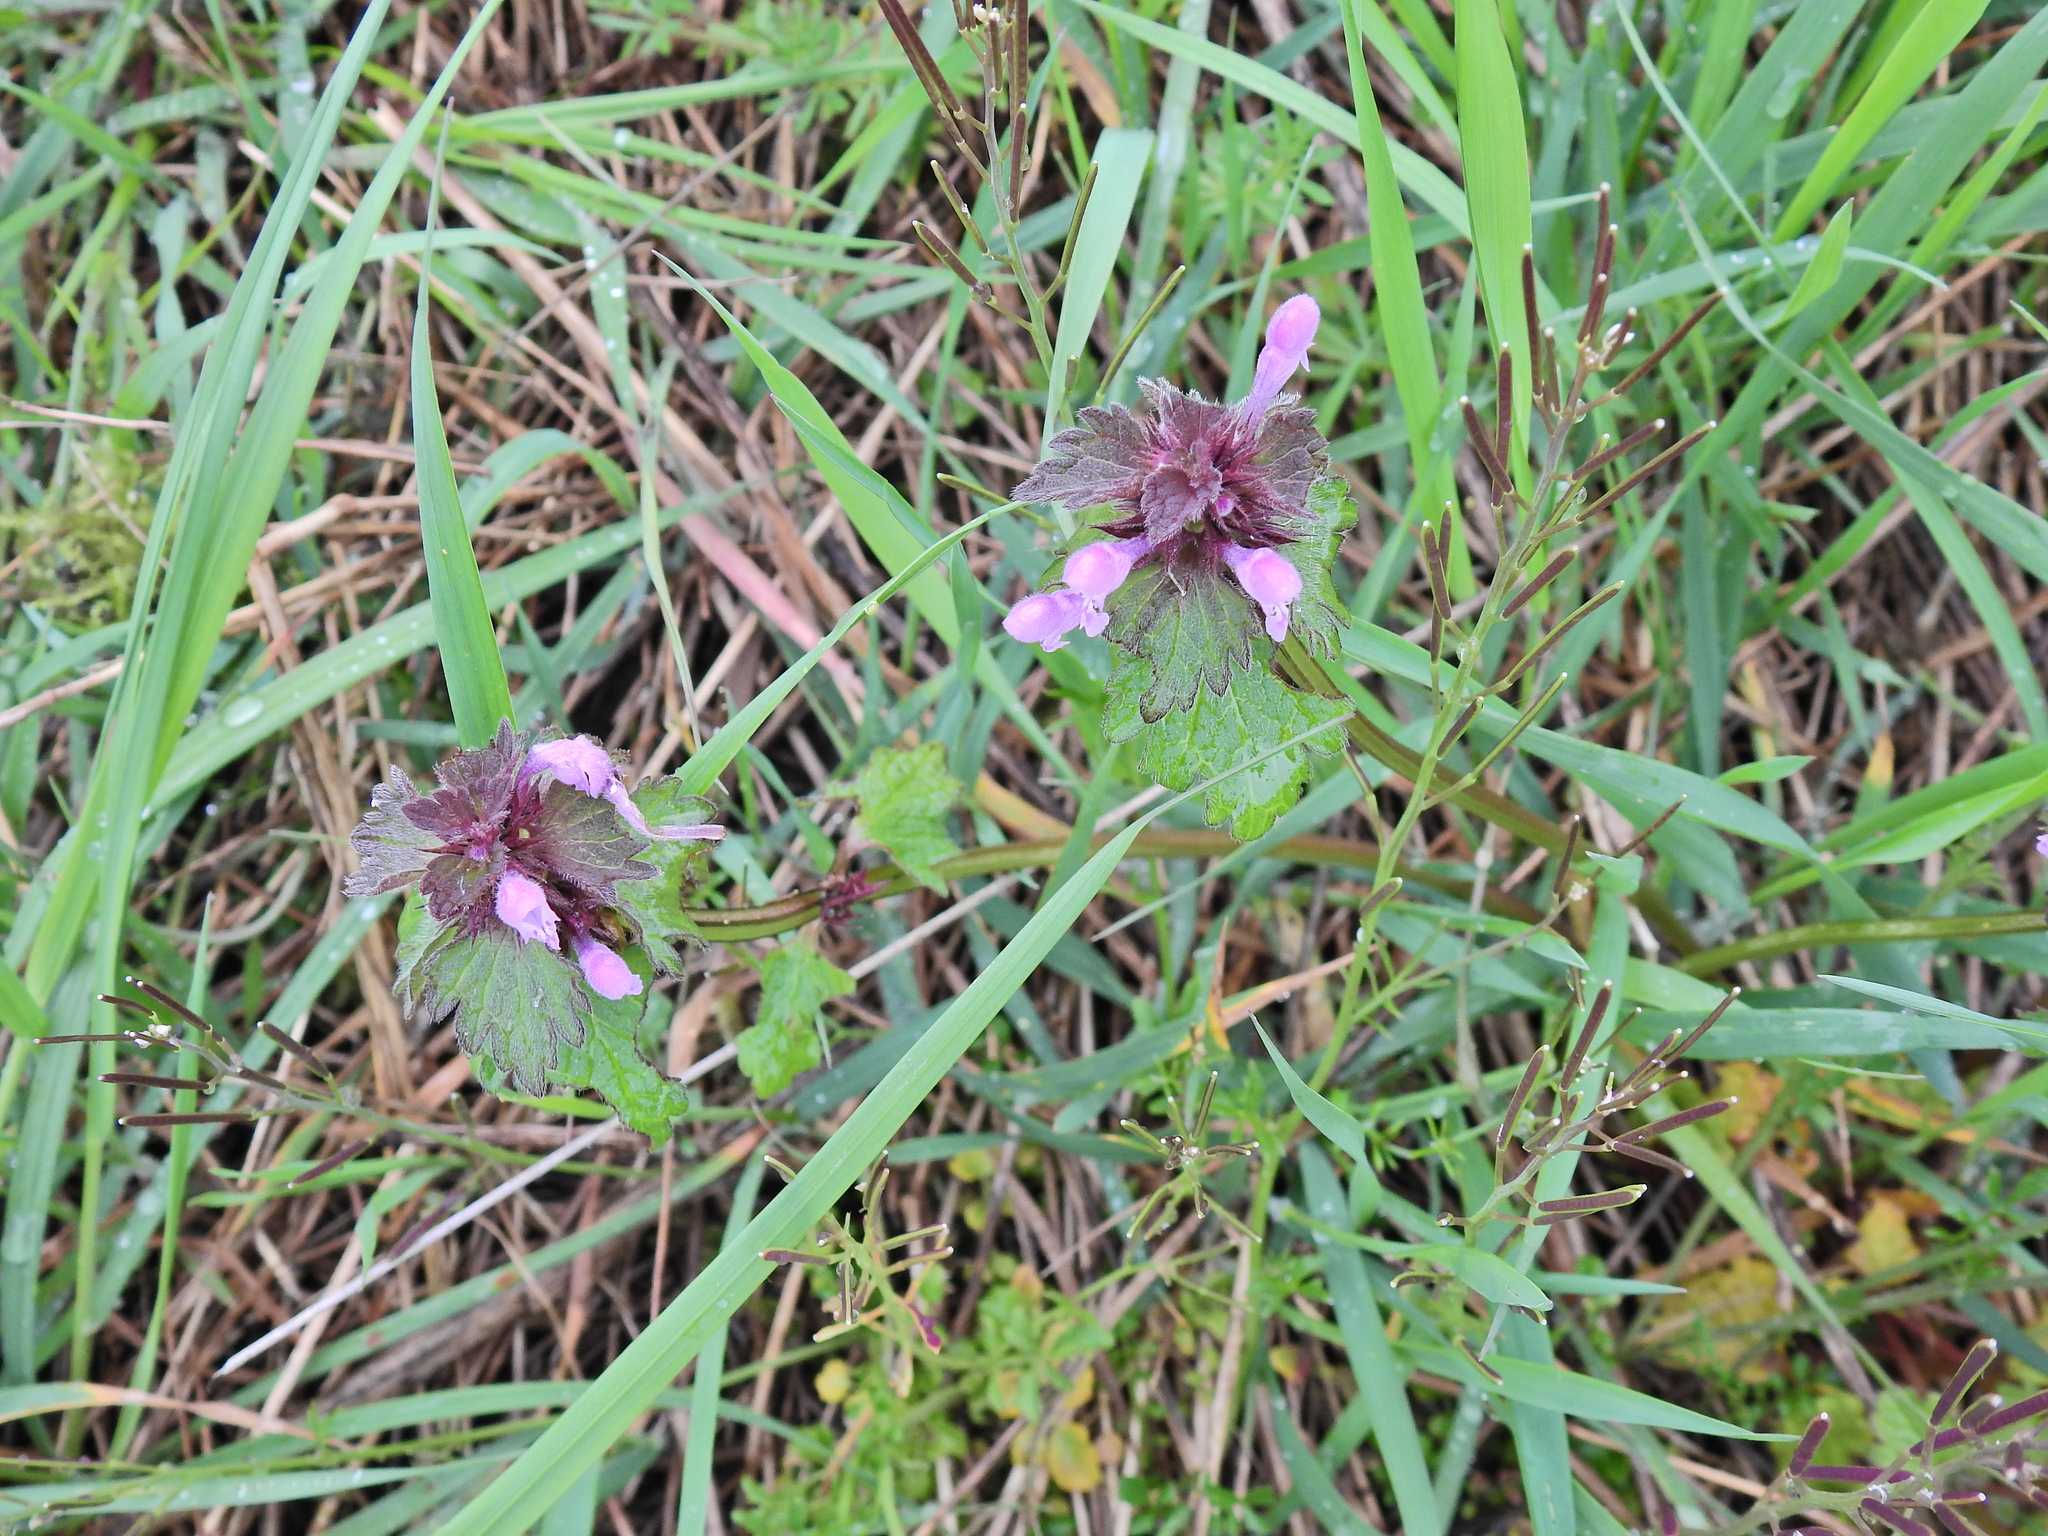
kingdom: Plantae
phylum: Tracheophyta
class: Magnoliopsida
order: Lamiales
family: Lamiaceae
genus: Lamium
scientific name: Lamium purpureum
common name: Red dead-nettle
